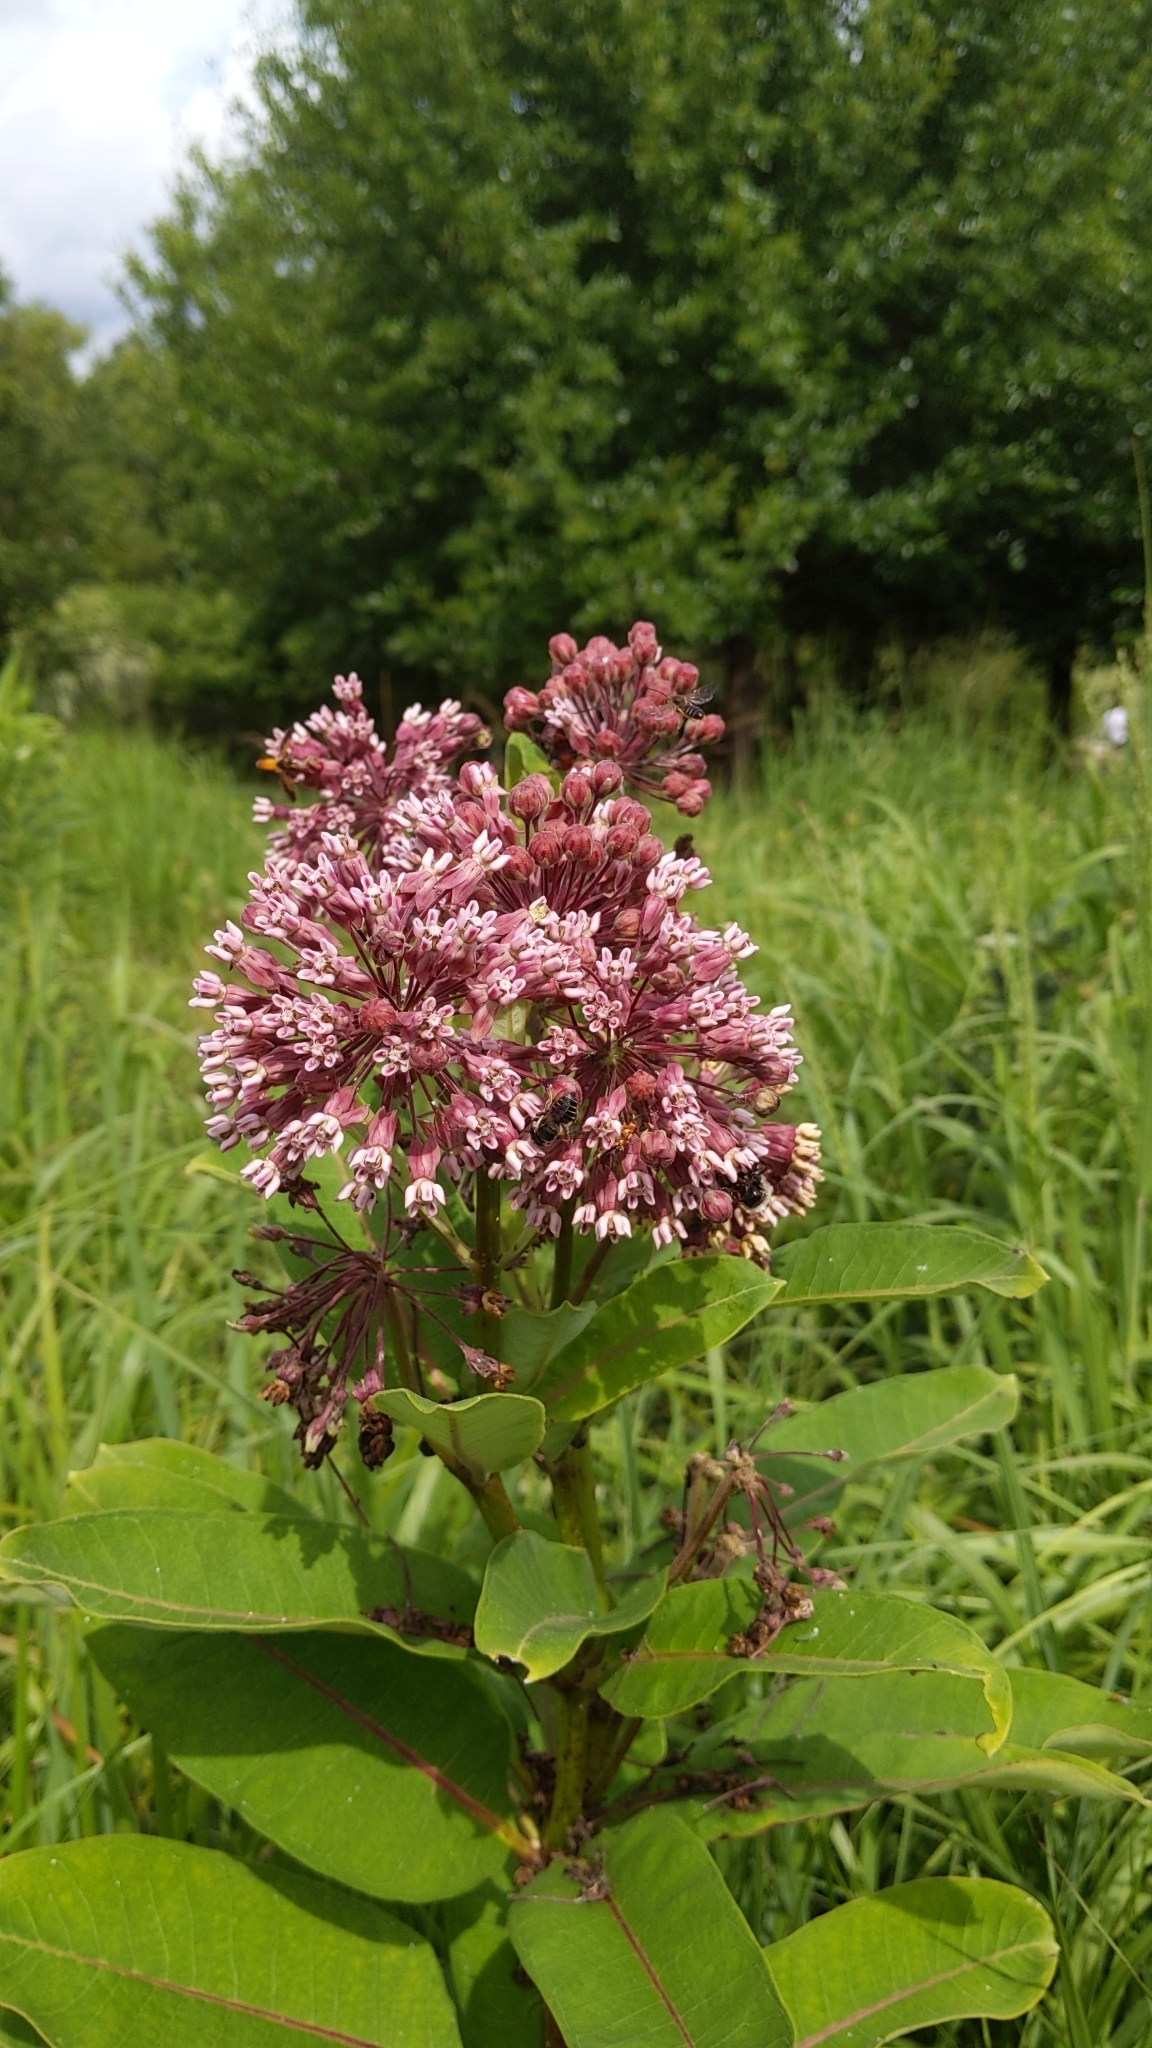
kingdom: Plantae
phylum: Tracheophyta
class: Magnoliopsida
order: Gentianales
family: Apocynaceae
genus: Asclepias
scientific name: Asclepias syriaca
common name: Common milkweed
